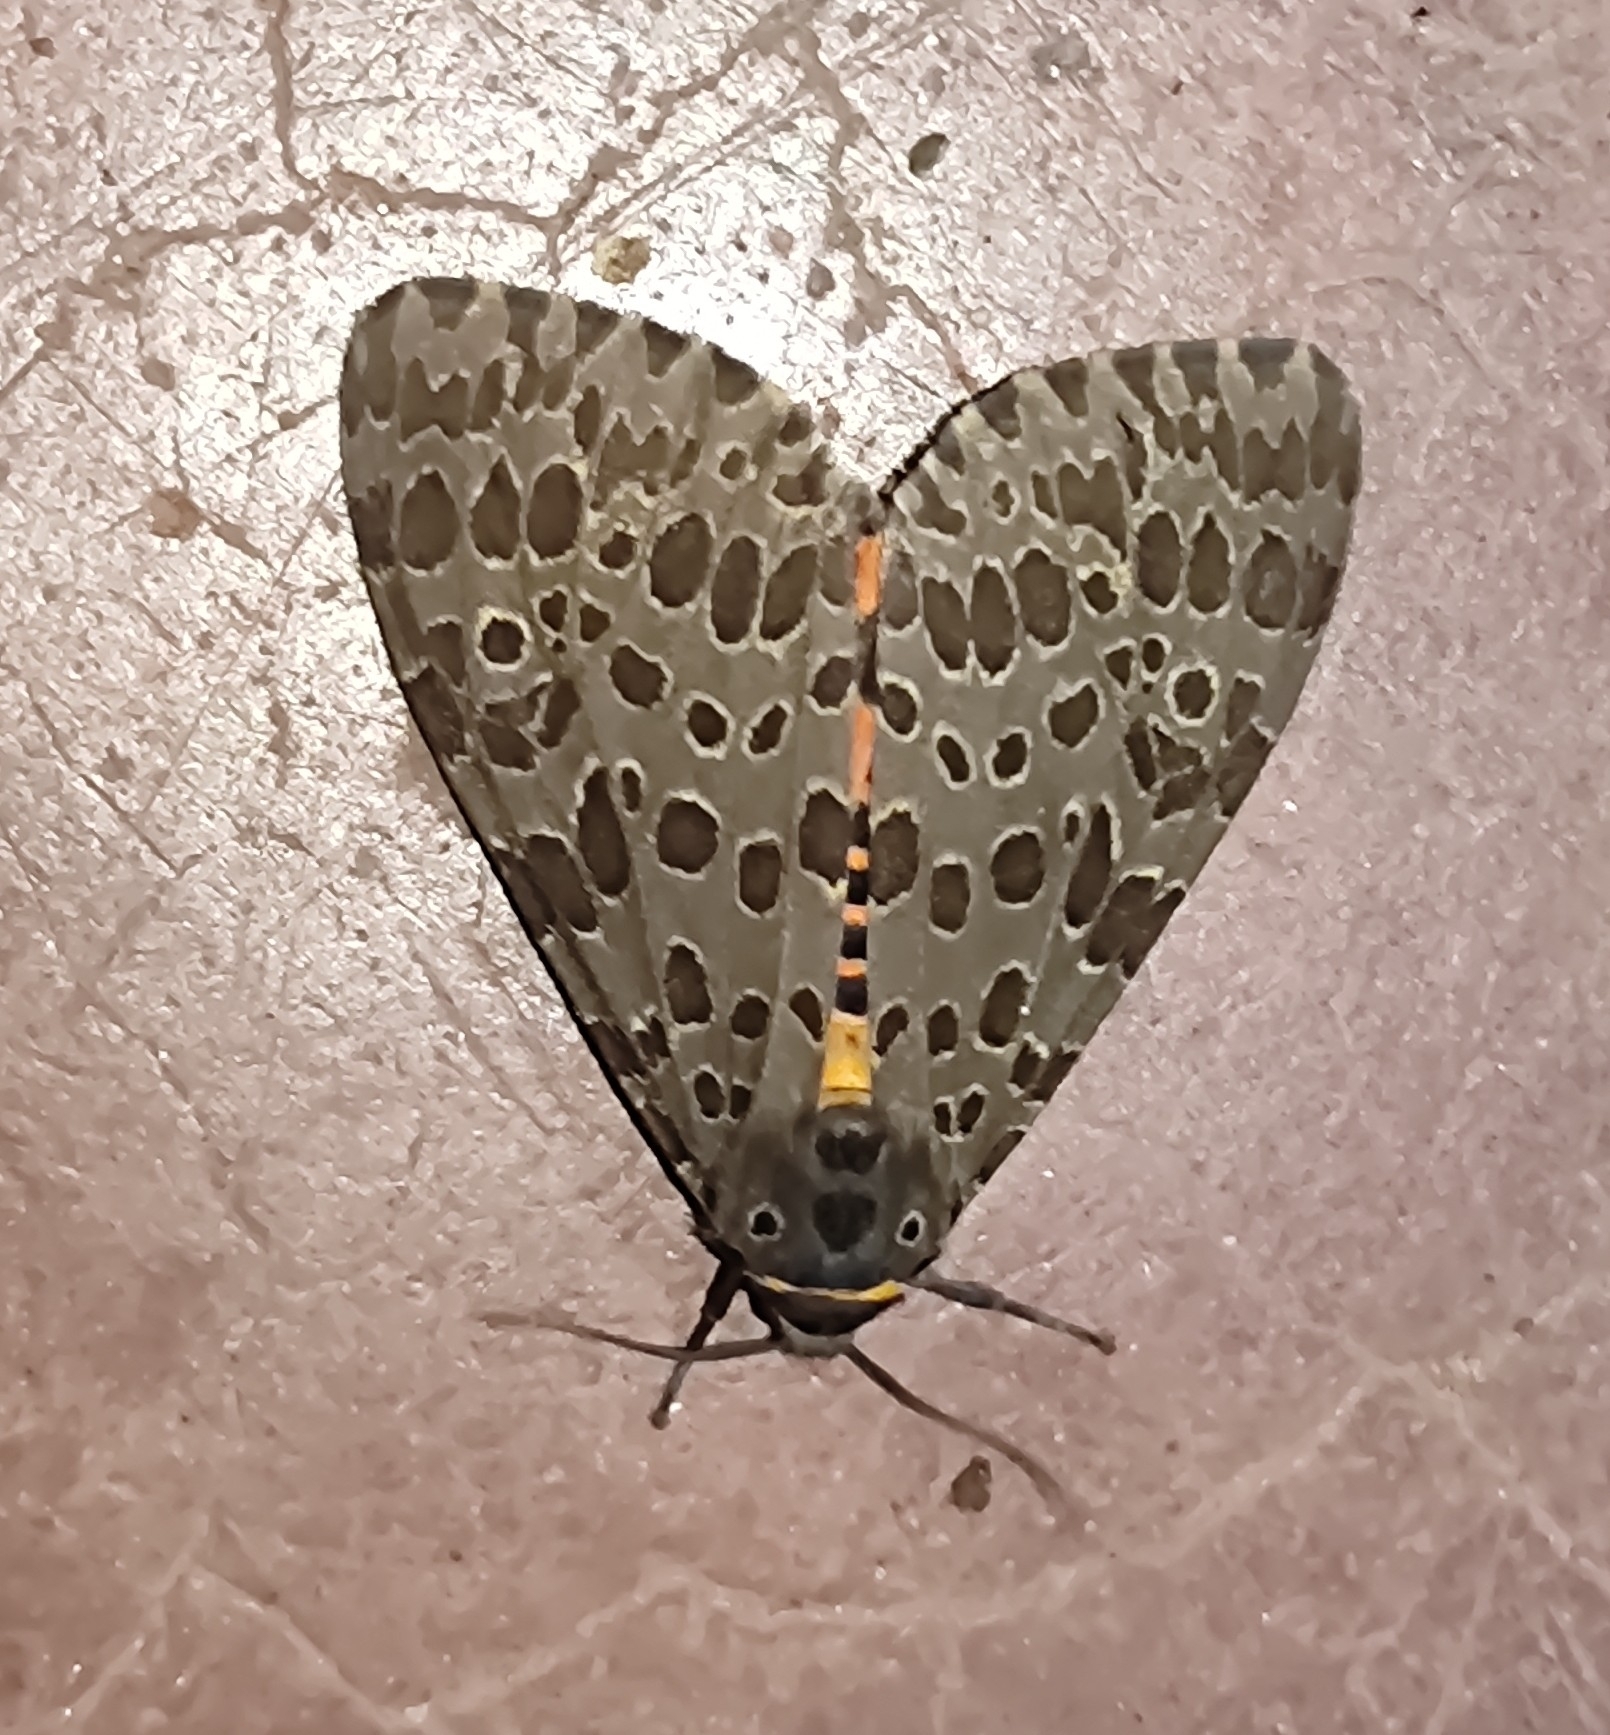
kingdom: Animalia
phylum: Arthropoda
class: Insecta
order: Lepidoptera
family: Erebidae
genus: Olepa
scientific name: Olepa ricini
